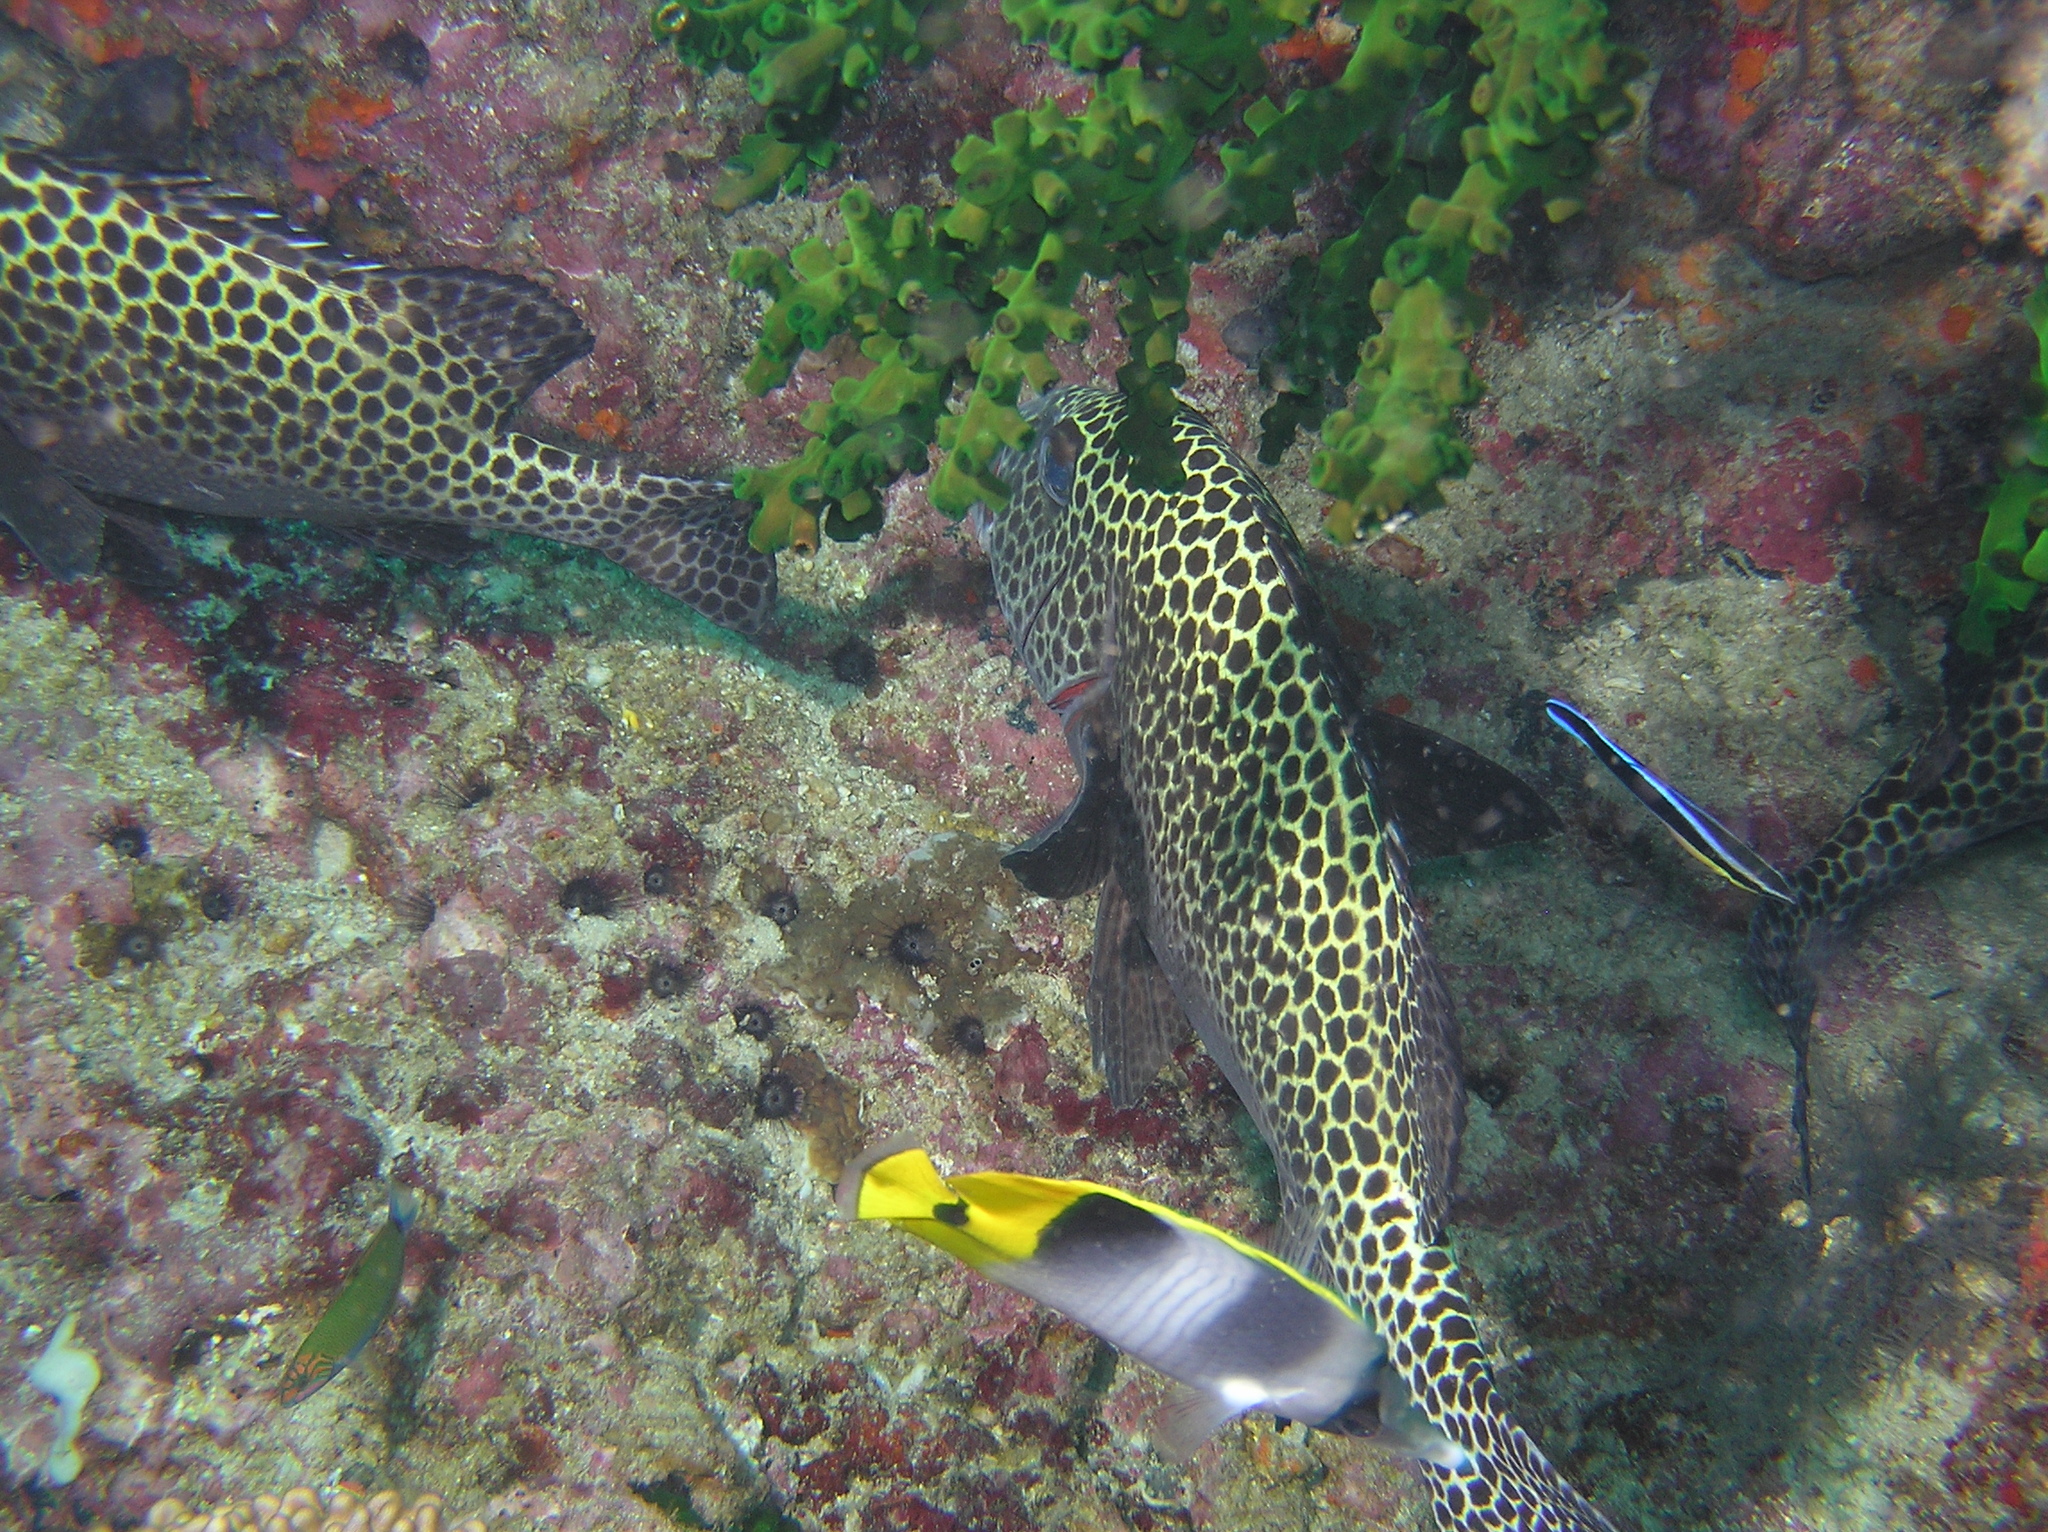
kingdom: Animalia
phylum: Chordata
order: Perciformes
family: Labridae
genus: Labroides
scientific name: Labroides dimidiatus
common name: Blue diesel wrasse
